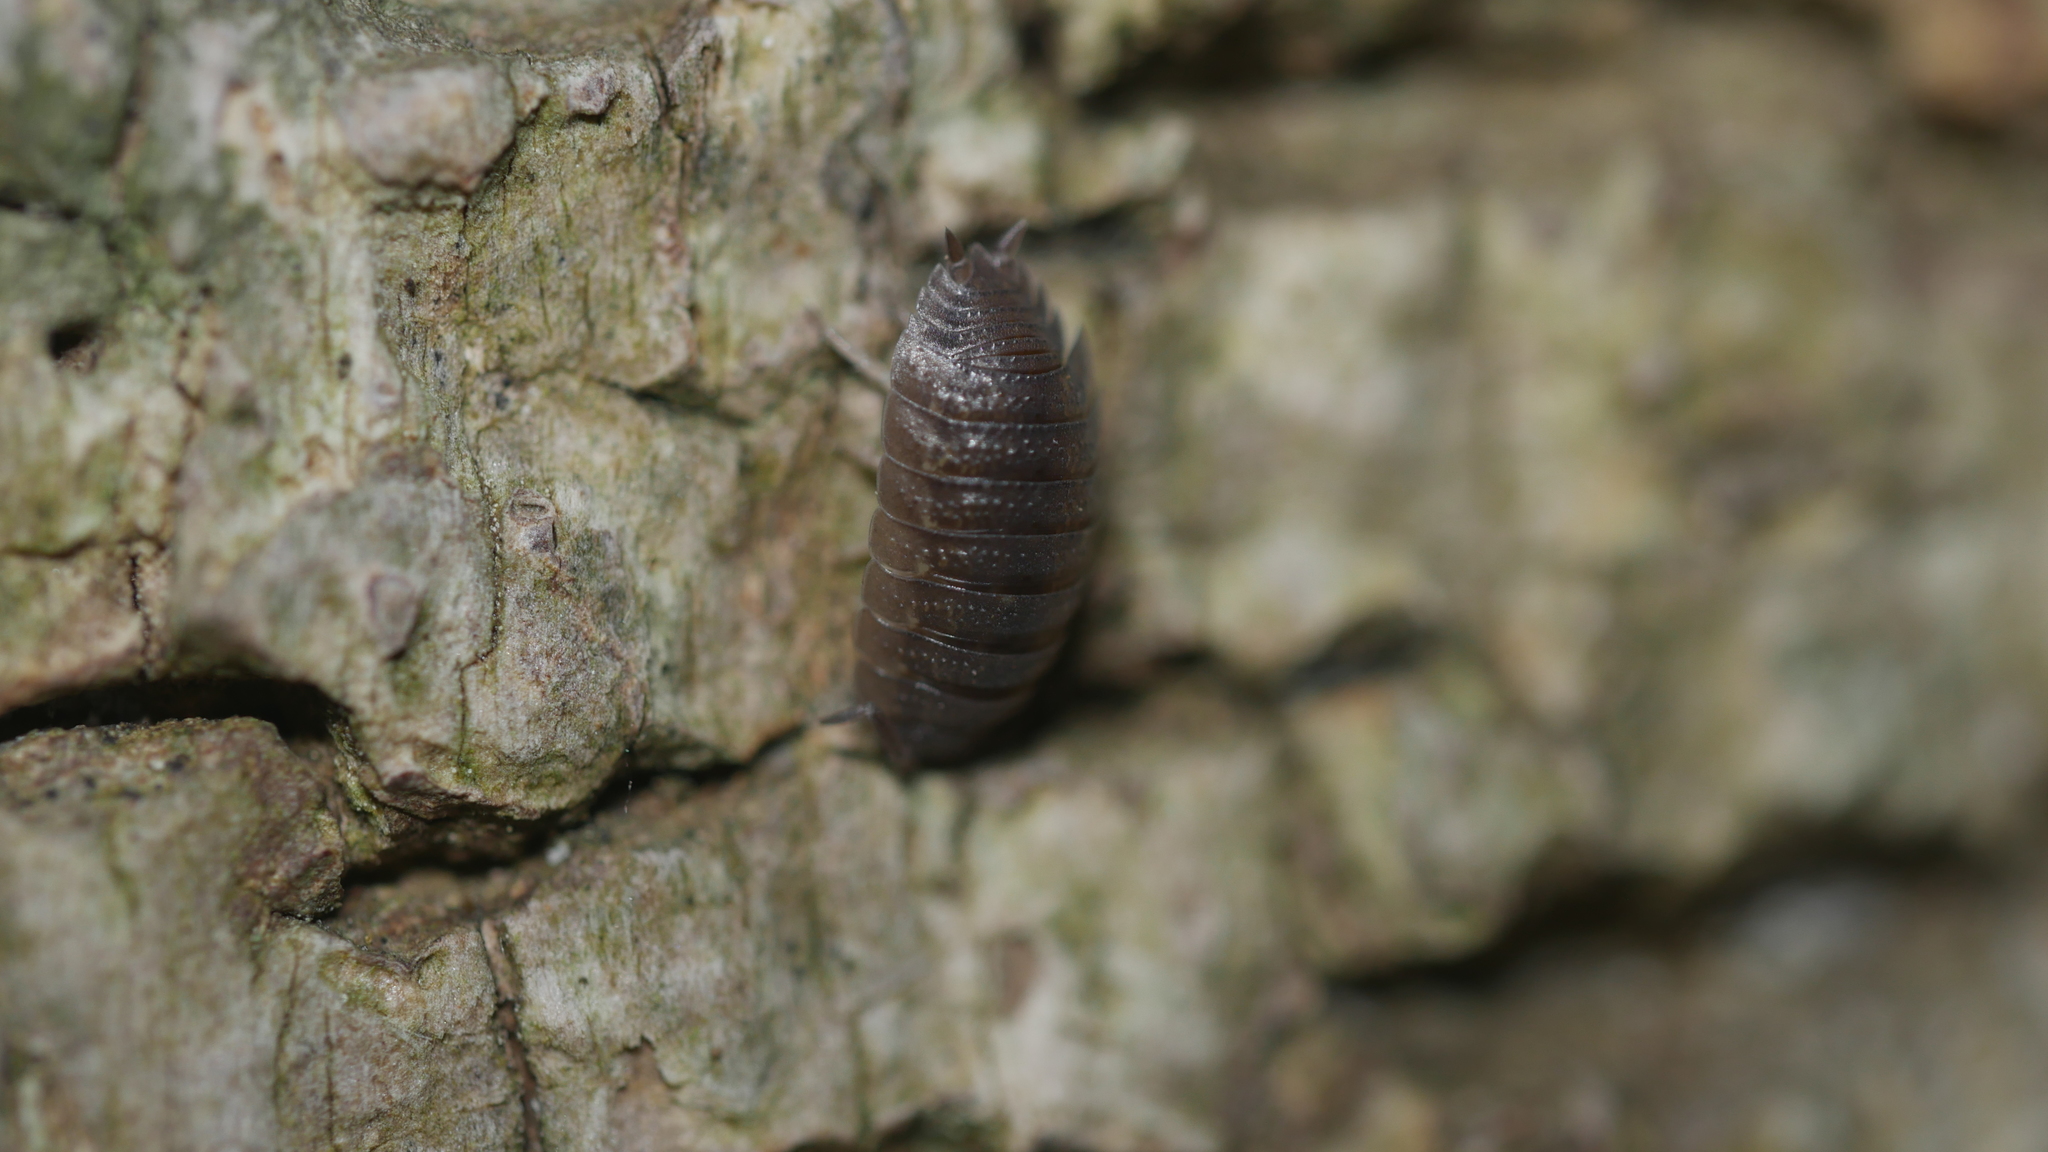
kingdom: Animalia
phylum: Arthropoda
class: Malacostraca
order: Isopoda
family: Porcellionidae
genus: Porcellio
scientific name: Porcellio scaber
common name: Common rough woodlouse
